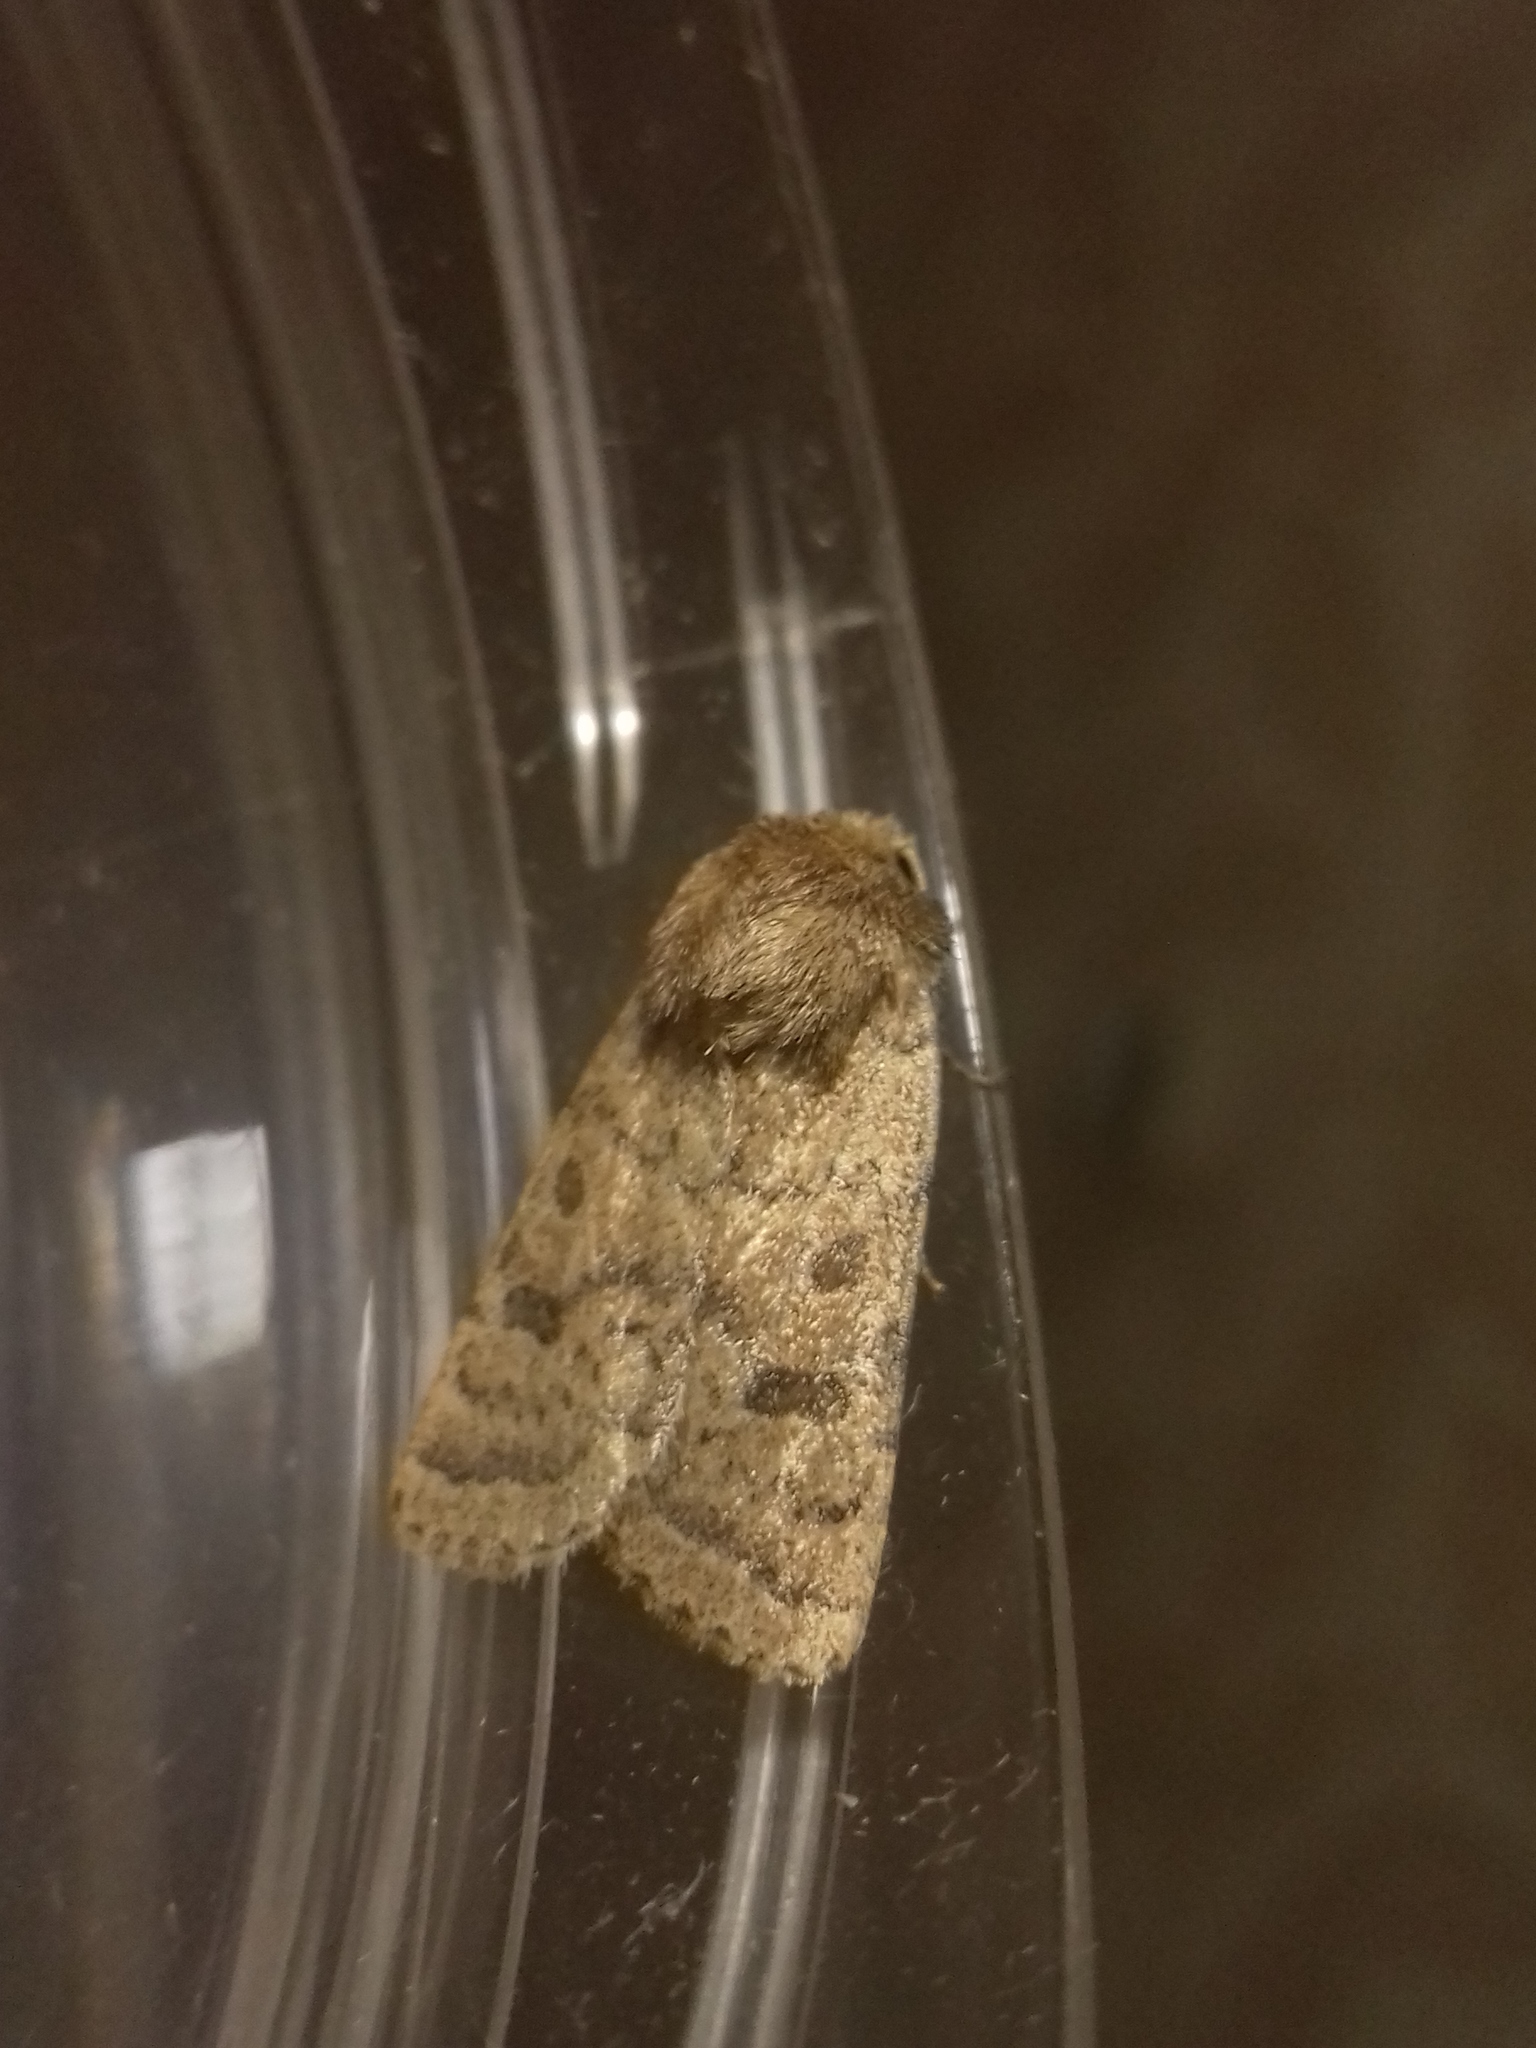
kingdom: Animalia
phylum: Arthropoda
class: Insecta
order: Lepidoptera
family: Noctuidae
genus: Hoplodrina
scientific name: Hoplodrina octogenaria
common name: Uncertain
